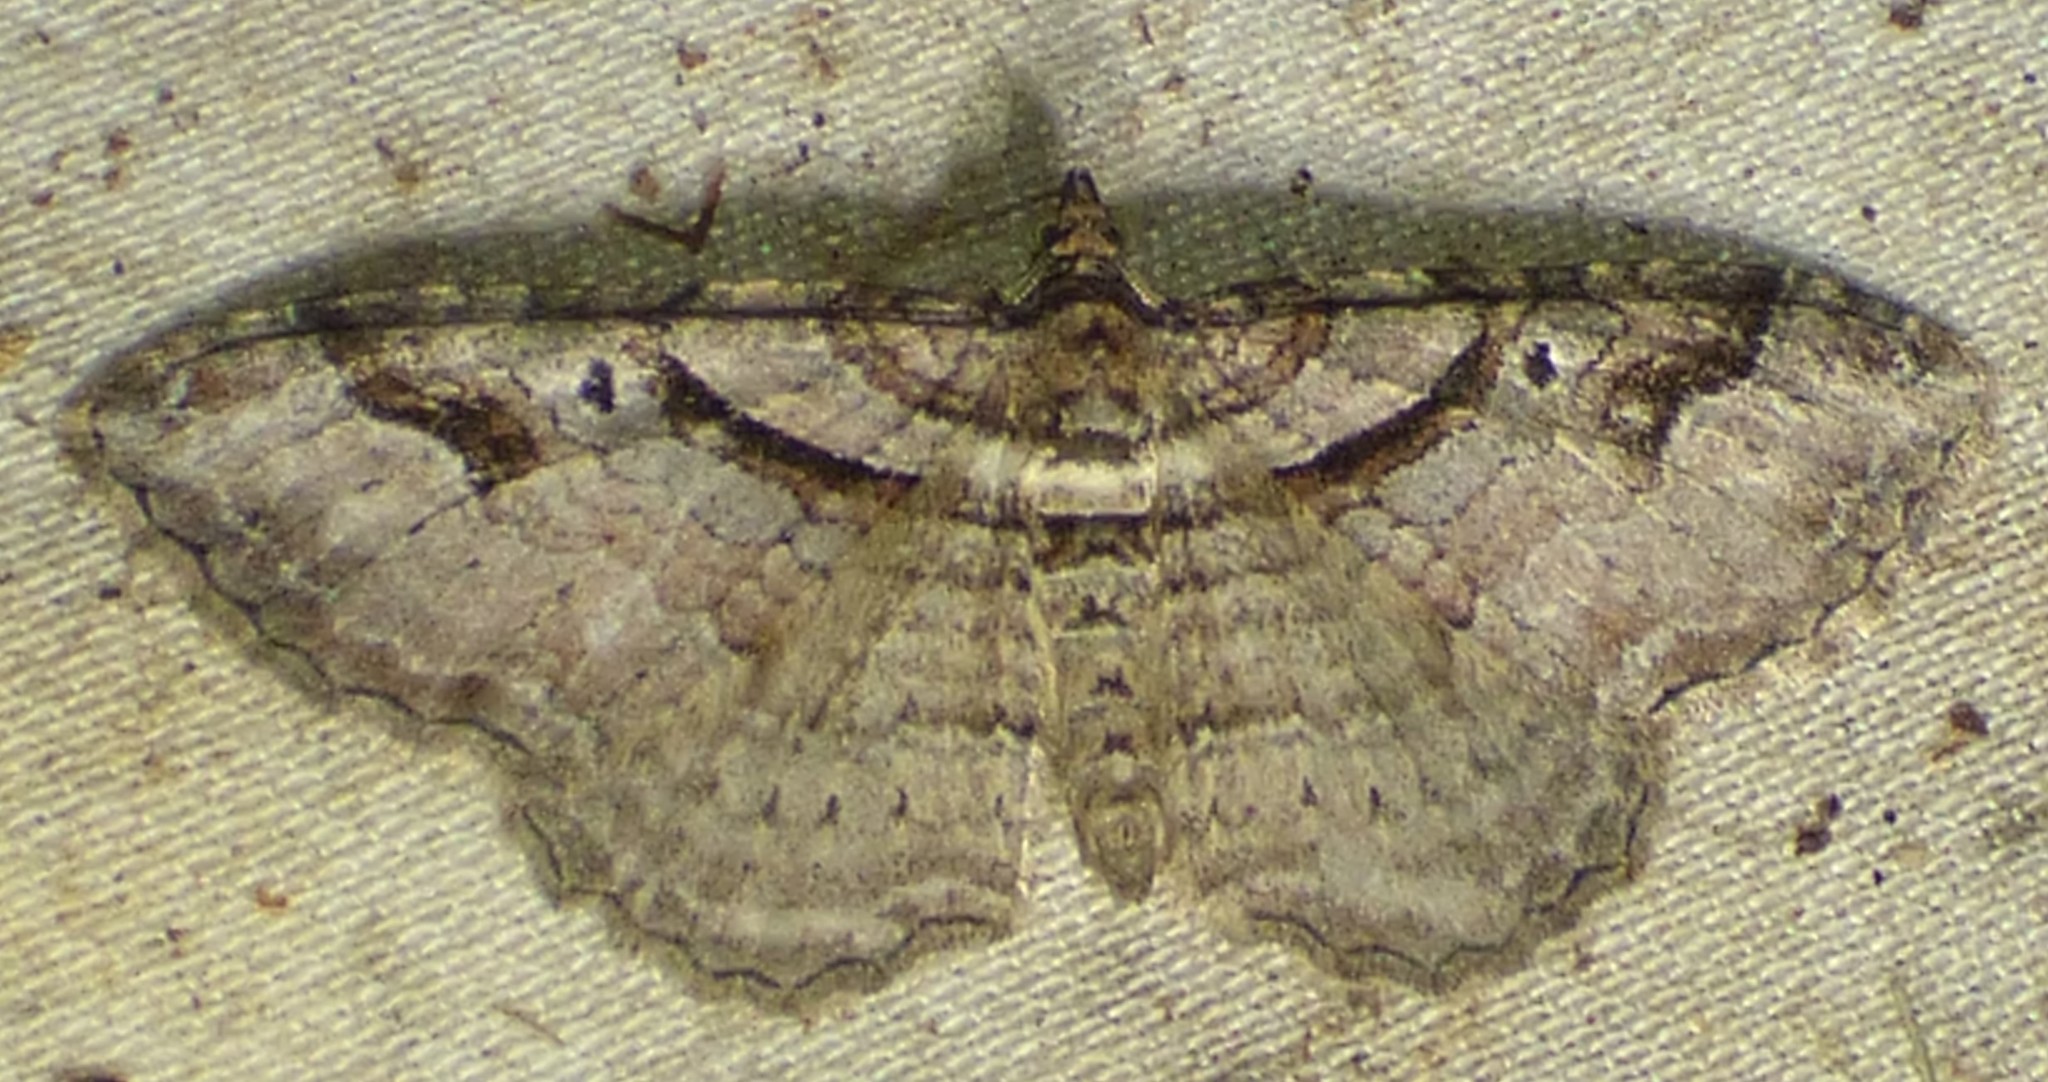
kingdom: Animalia
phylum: Arthropoda
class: Insecta
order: Lepidoptera
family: Geometridae
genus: Costaconvexa
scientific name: Costaconvexa centrostrigaria
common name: Bent-line carpet
